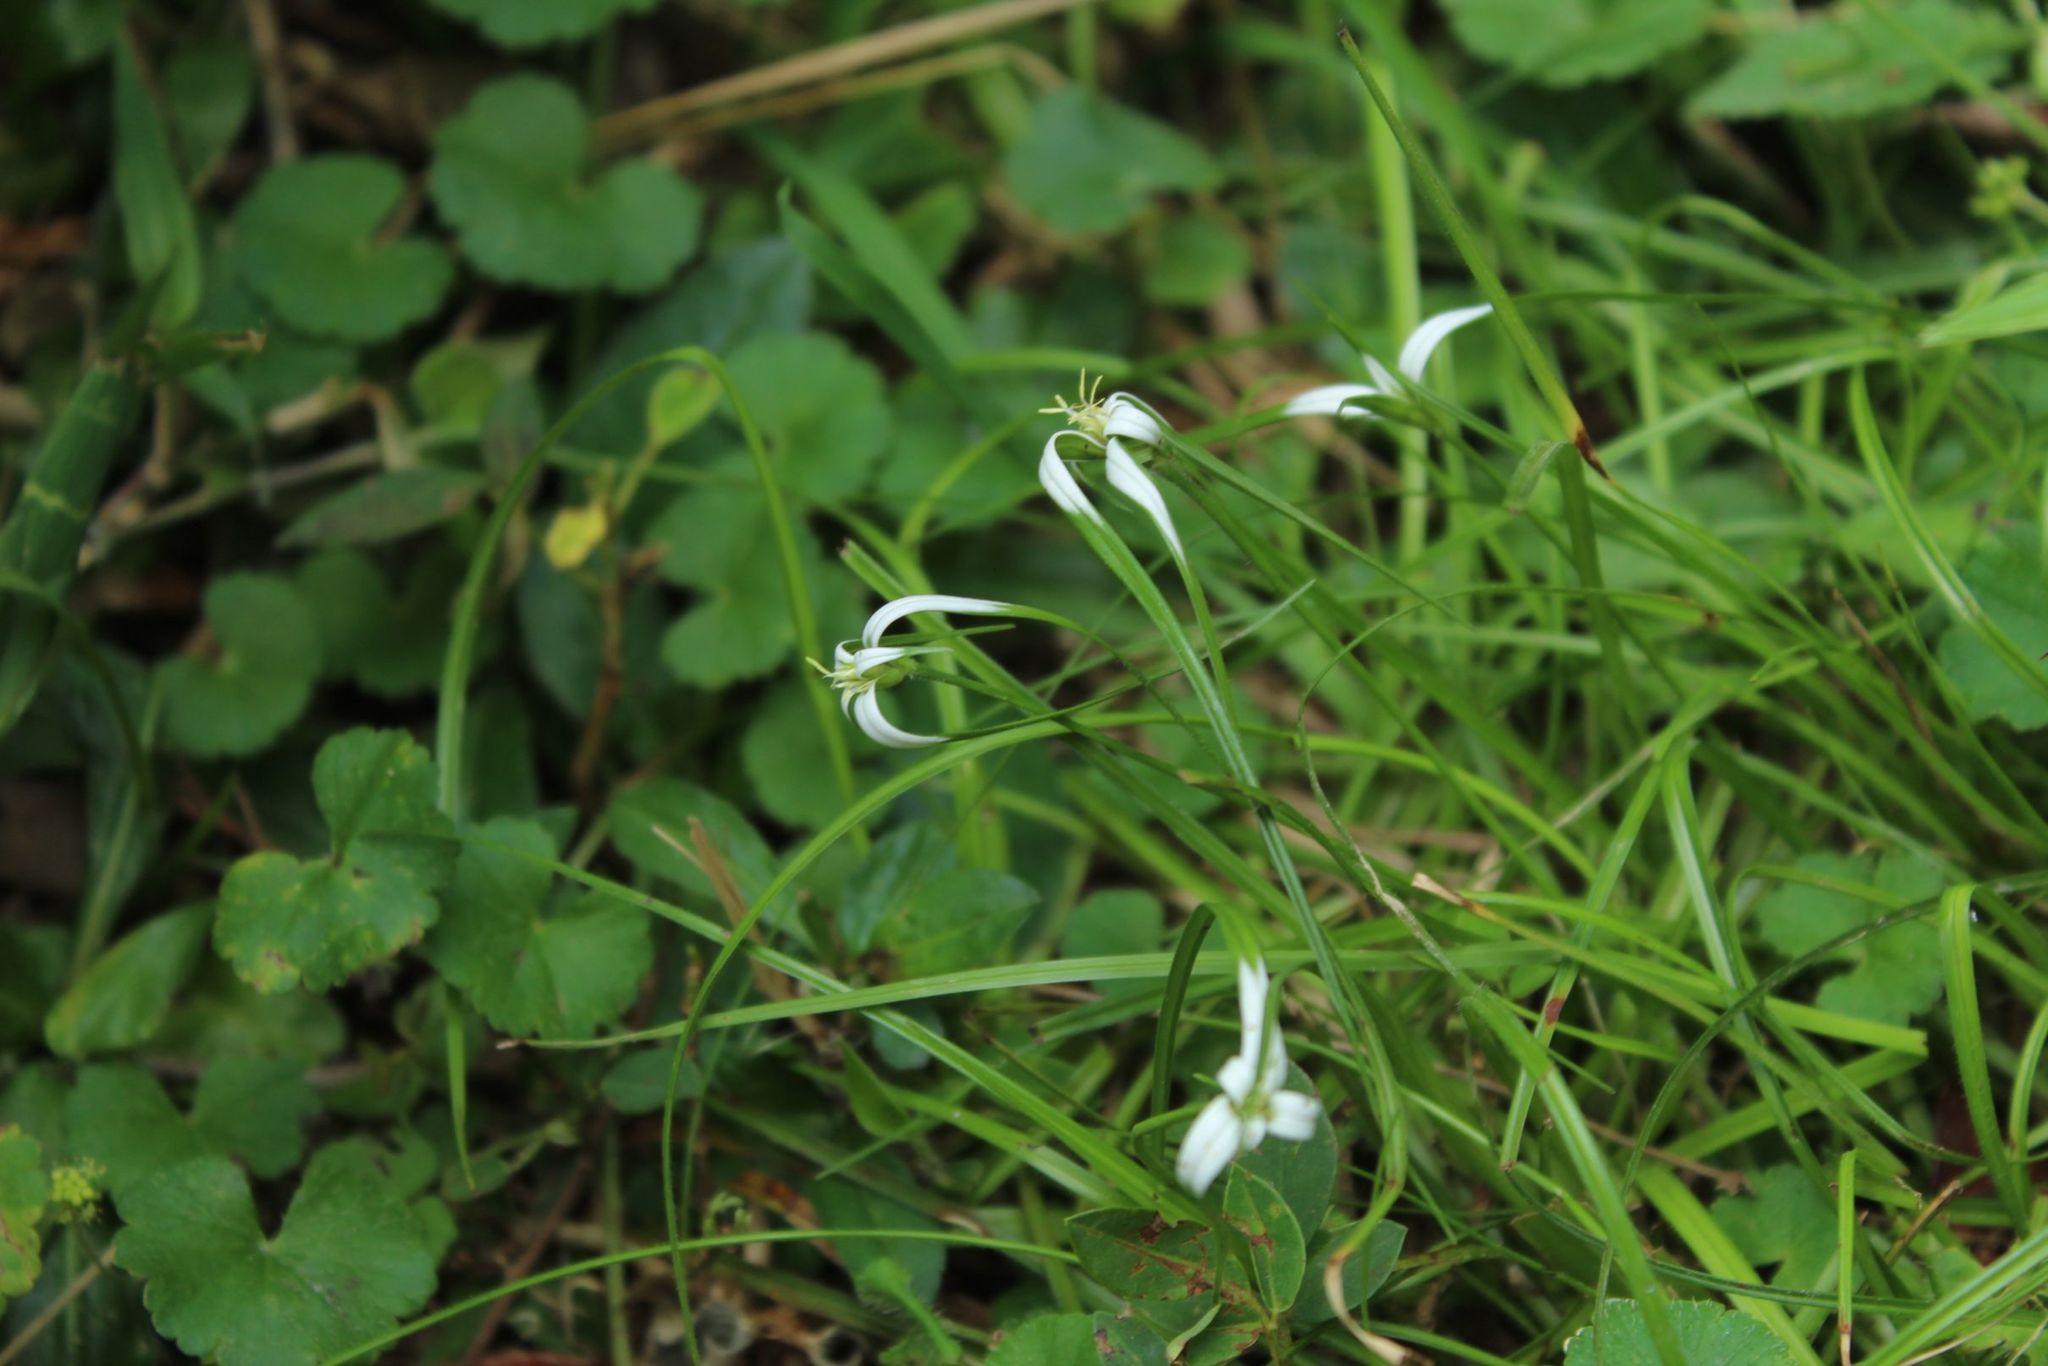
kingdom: Plantae
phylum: Tracheophyta
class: Liliopsida
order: Poales
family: Cyperaceae
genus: Rhynchospora
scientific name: Rhynchospora nervosa
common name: Star sedge
